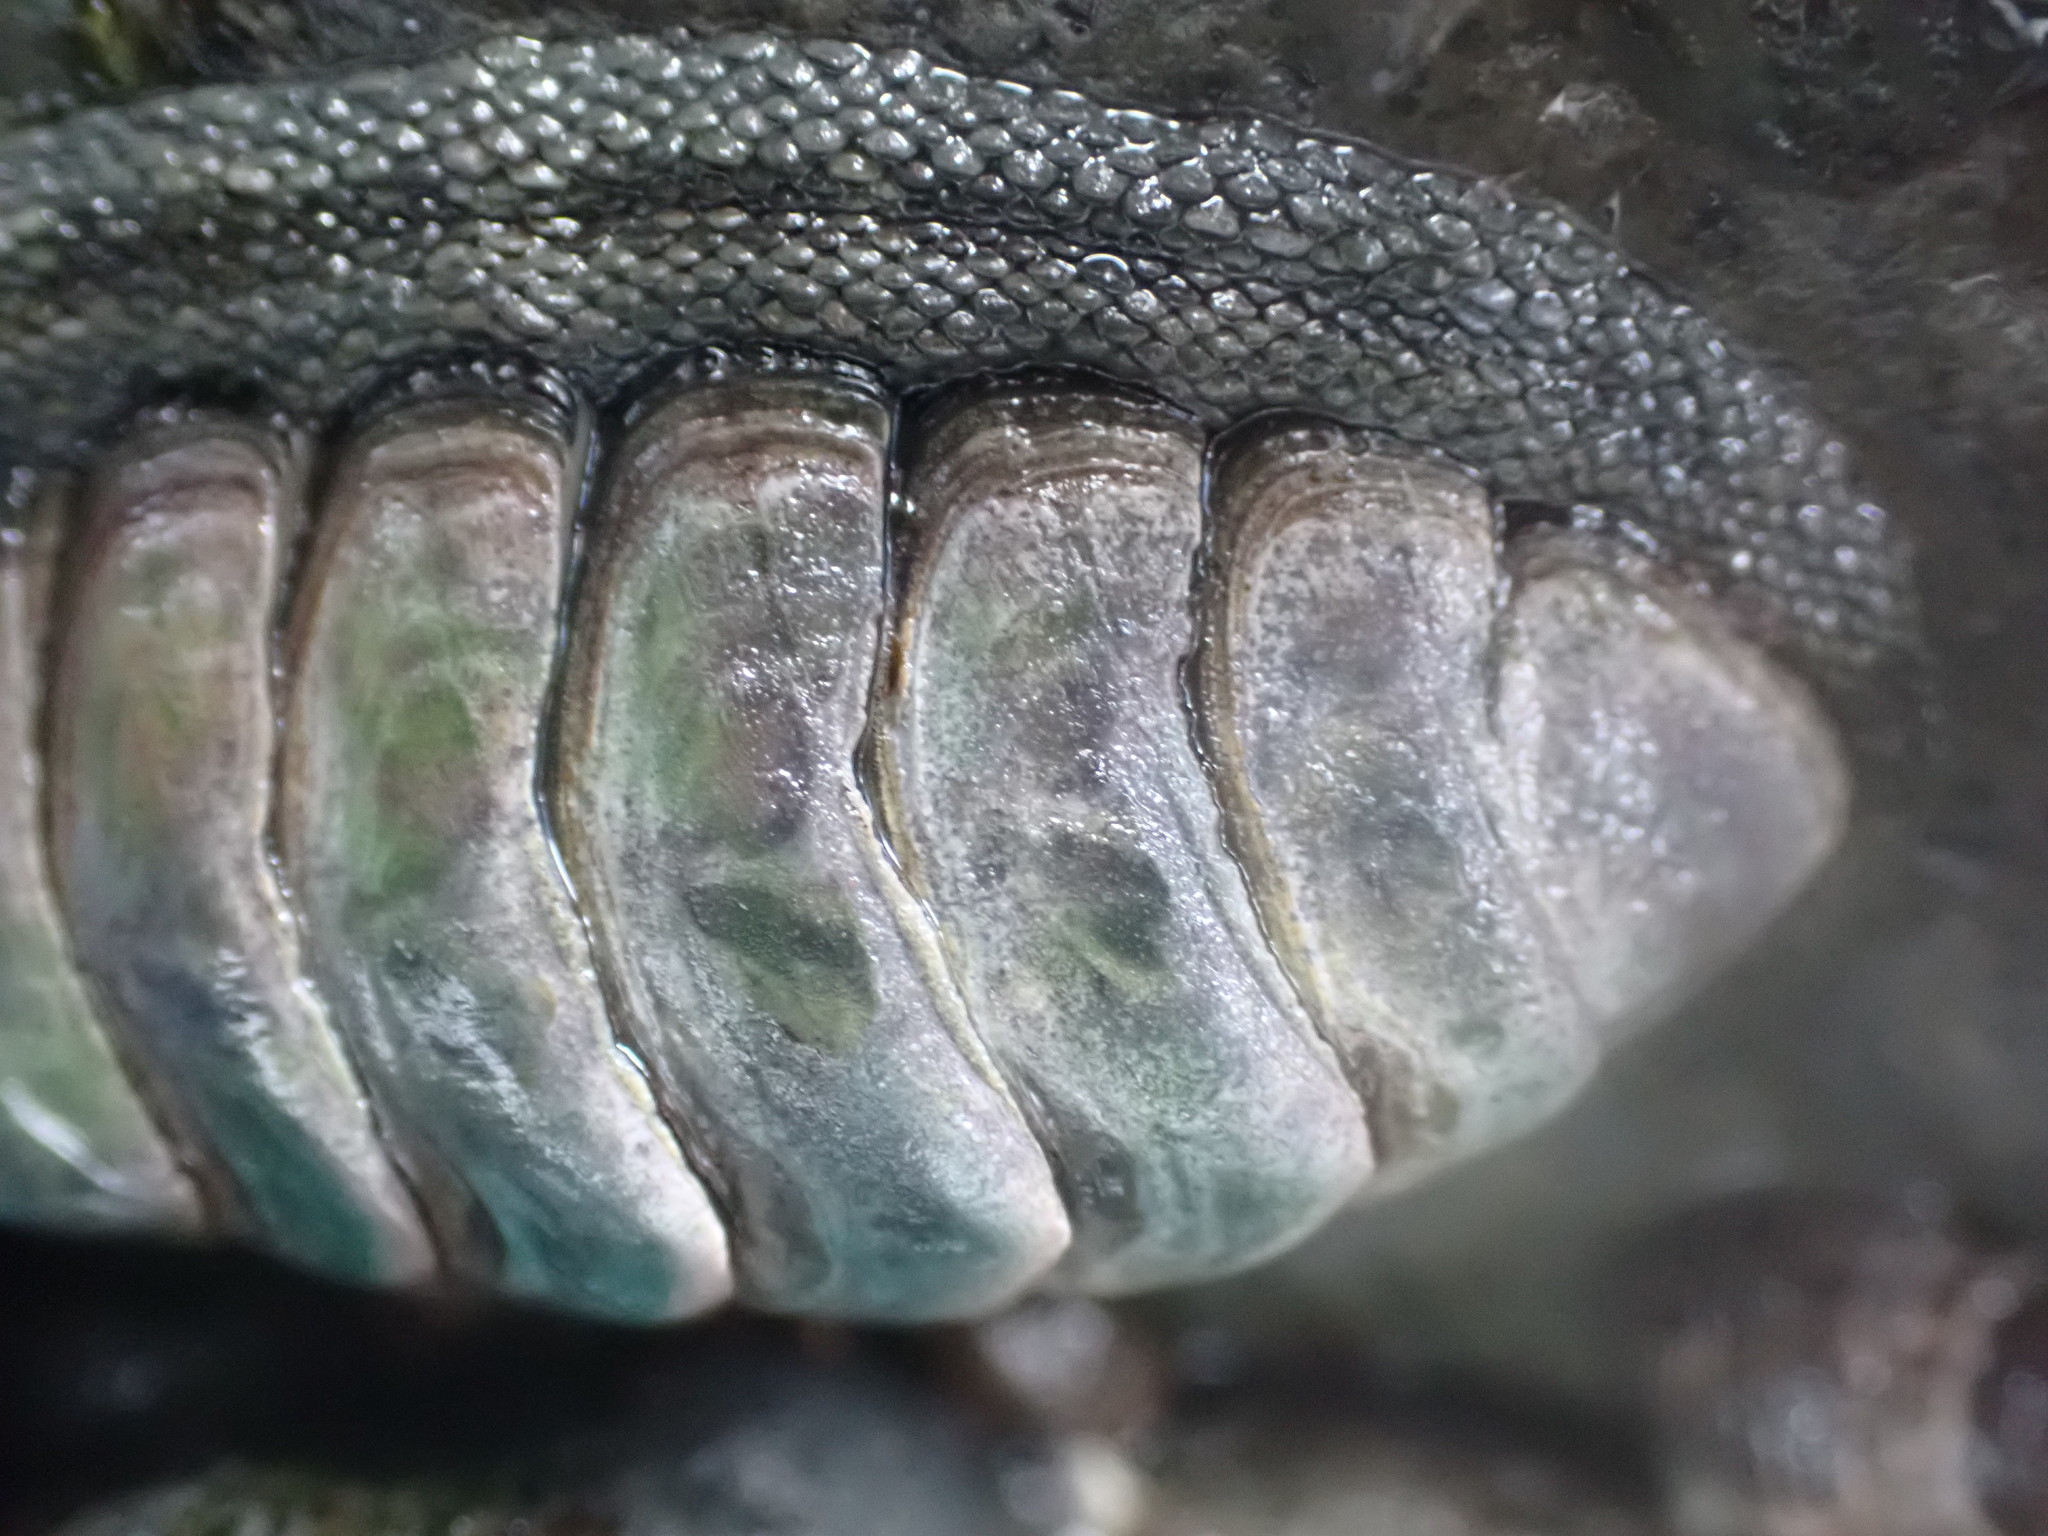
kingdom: Animalia
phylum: Mollusca
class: Polyplacophora
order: Chitonida
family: Chitonidae
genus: Chiton
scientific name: Chiton glaucus
